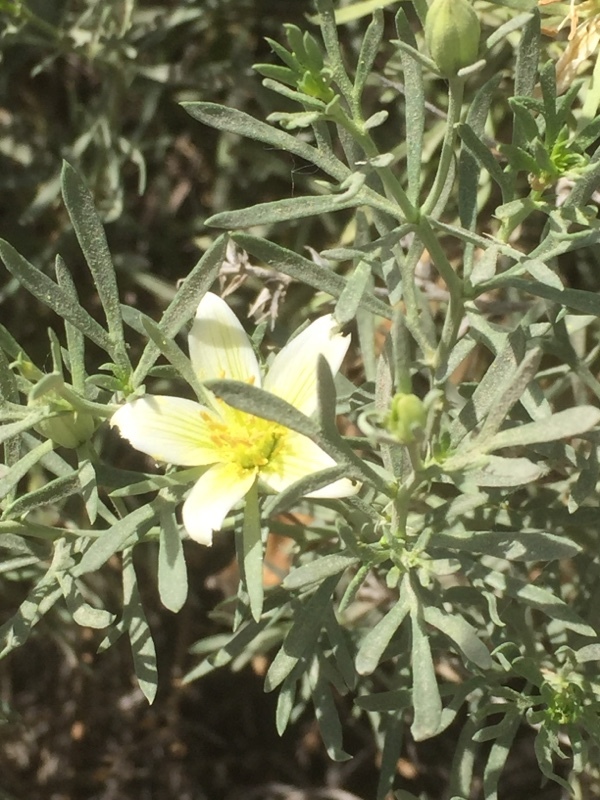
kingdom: Plantae
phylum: Tracheophyta
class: Magnoliopsida
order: Sapindales
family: Tetradiclidaceae
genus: Peganum
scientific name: Peganum harmala
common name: Harmal peganum
